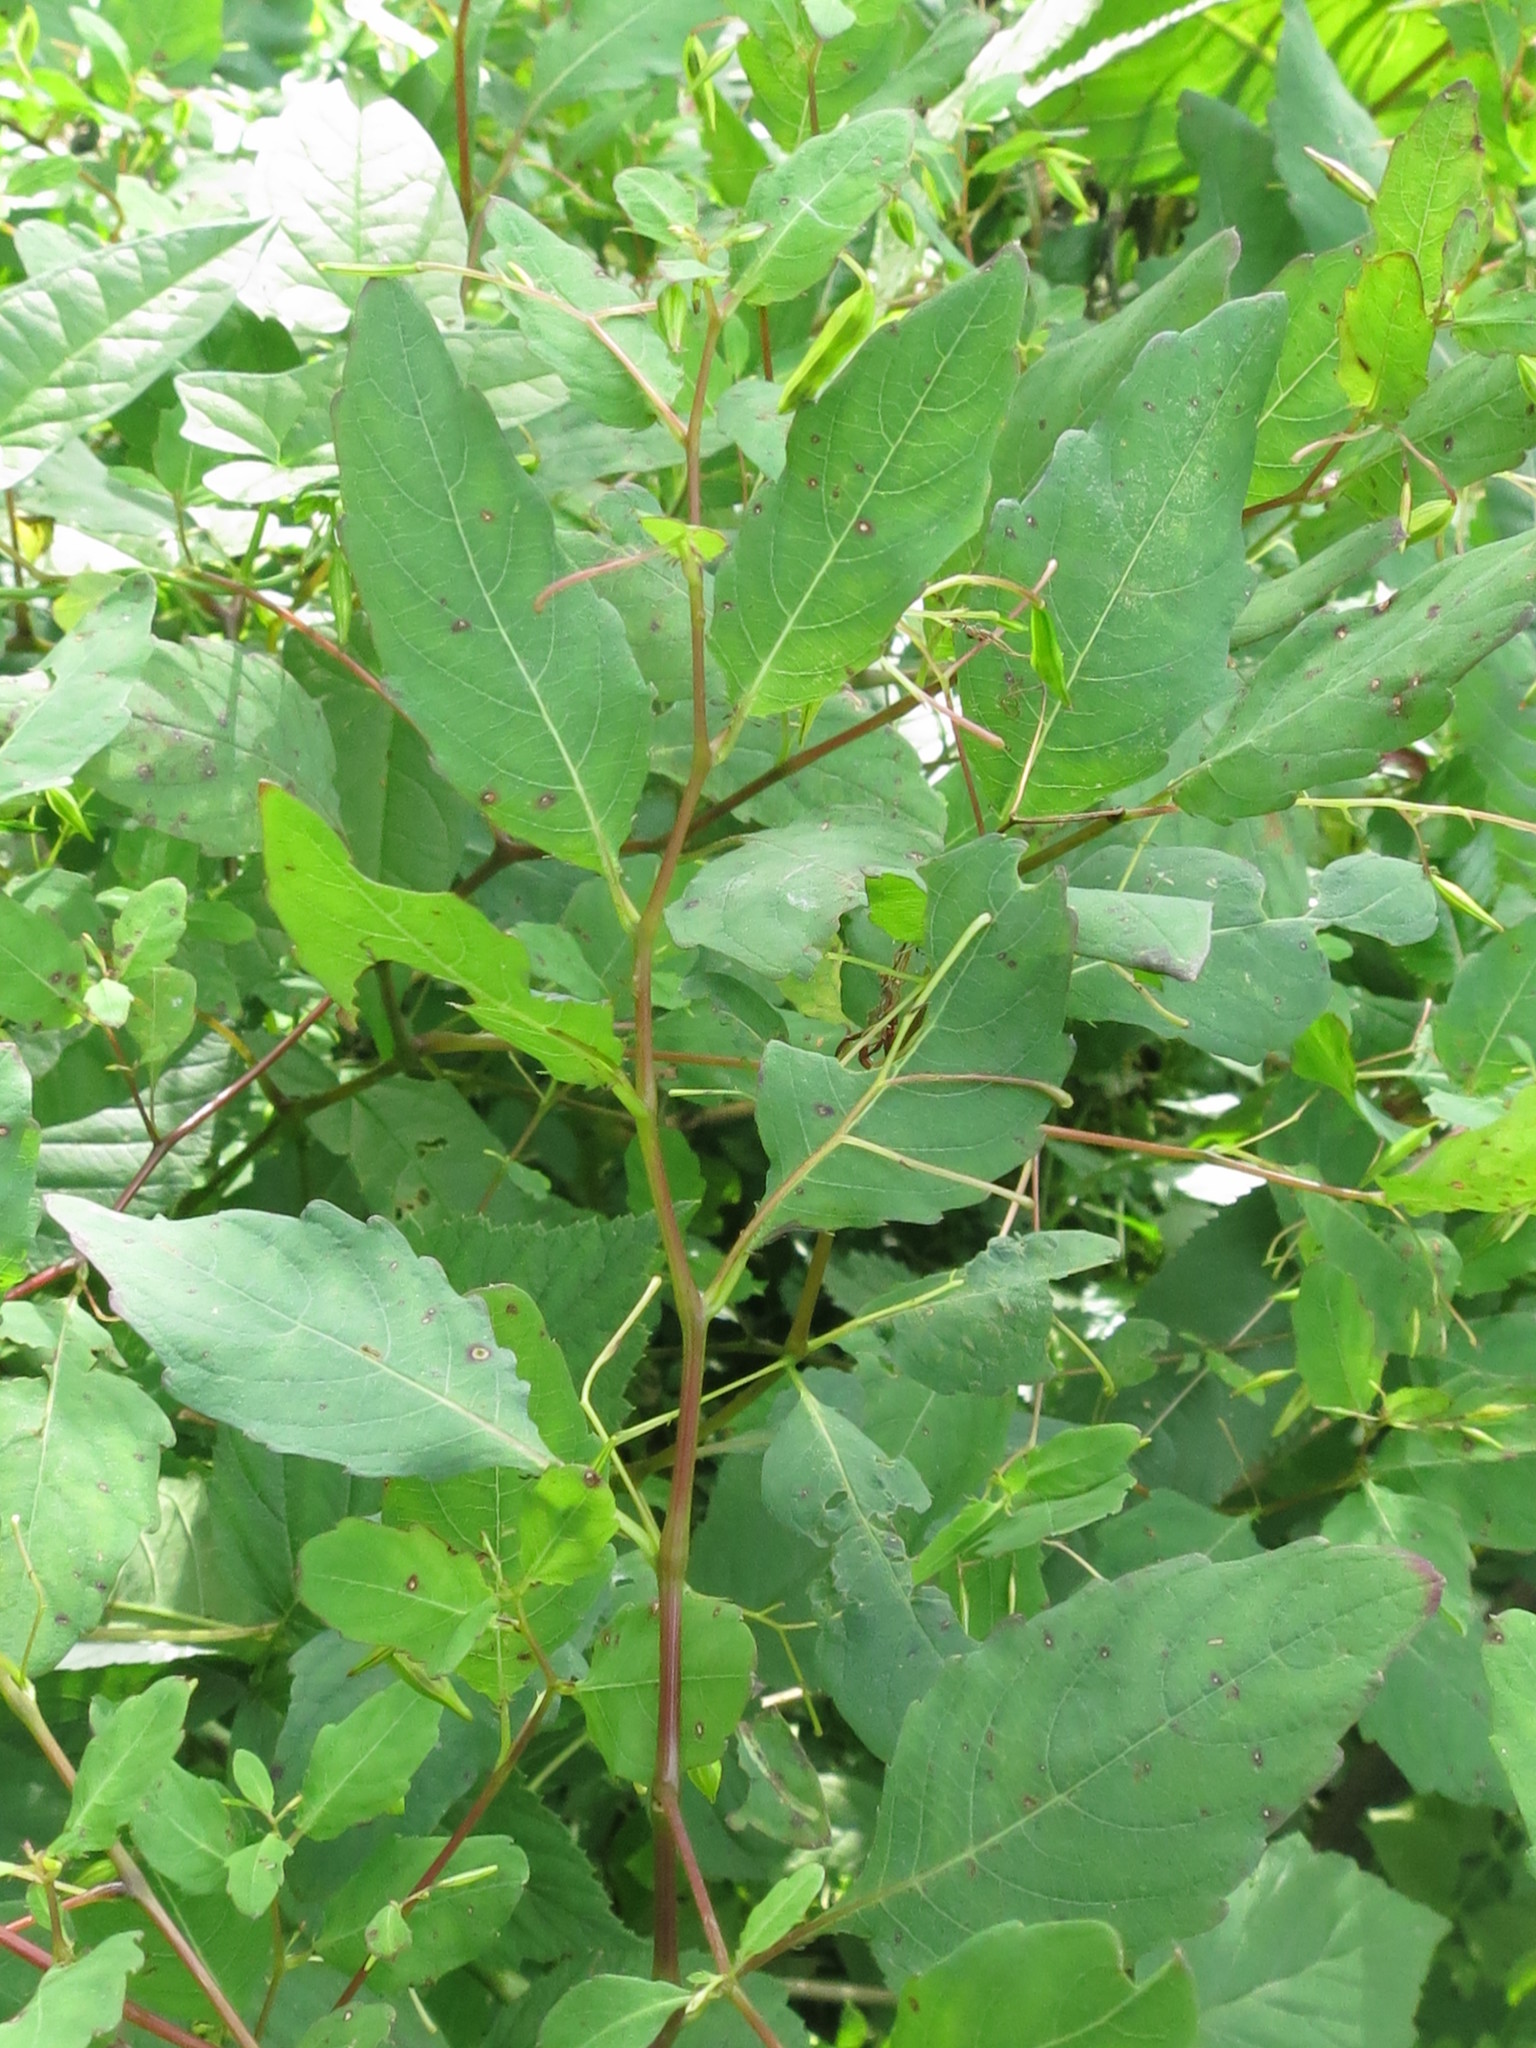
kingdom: Plantae
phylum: Tracheophyta
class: Magnoliopsida
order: Ericales
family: Balsaminaceae
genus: Impatiens
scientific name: Impatiens noli-tangere
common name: Touch-me-not balsam
